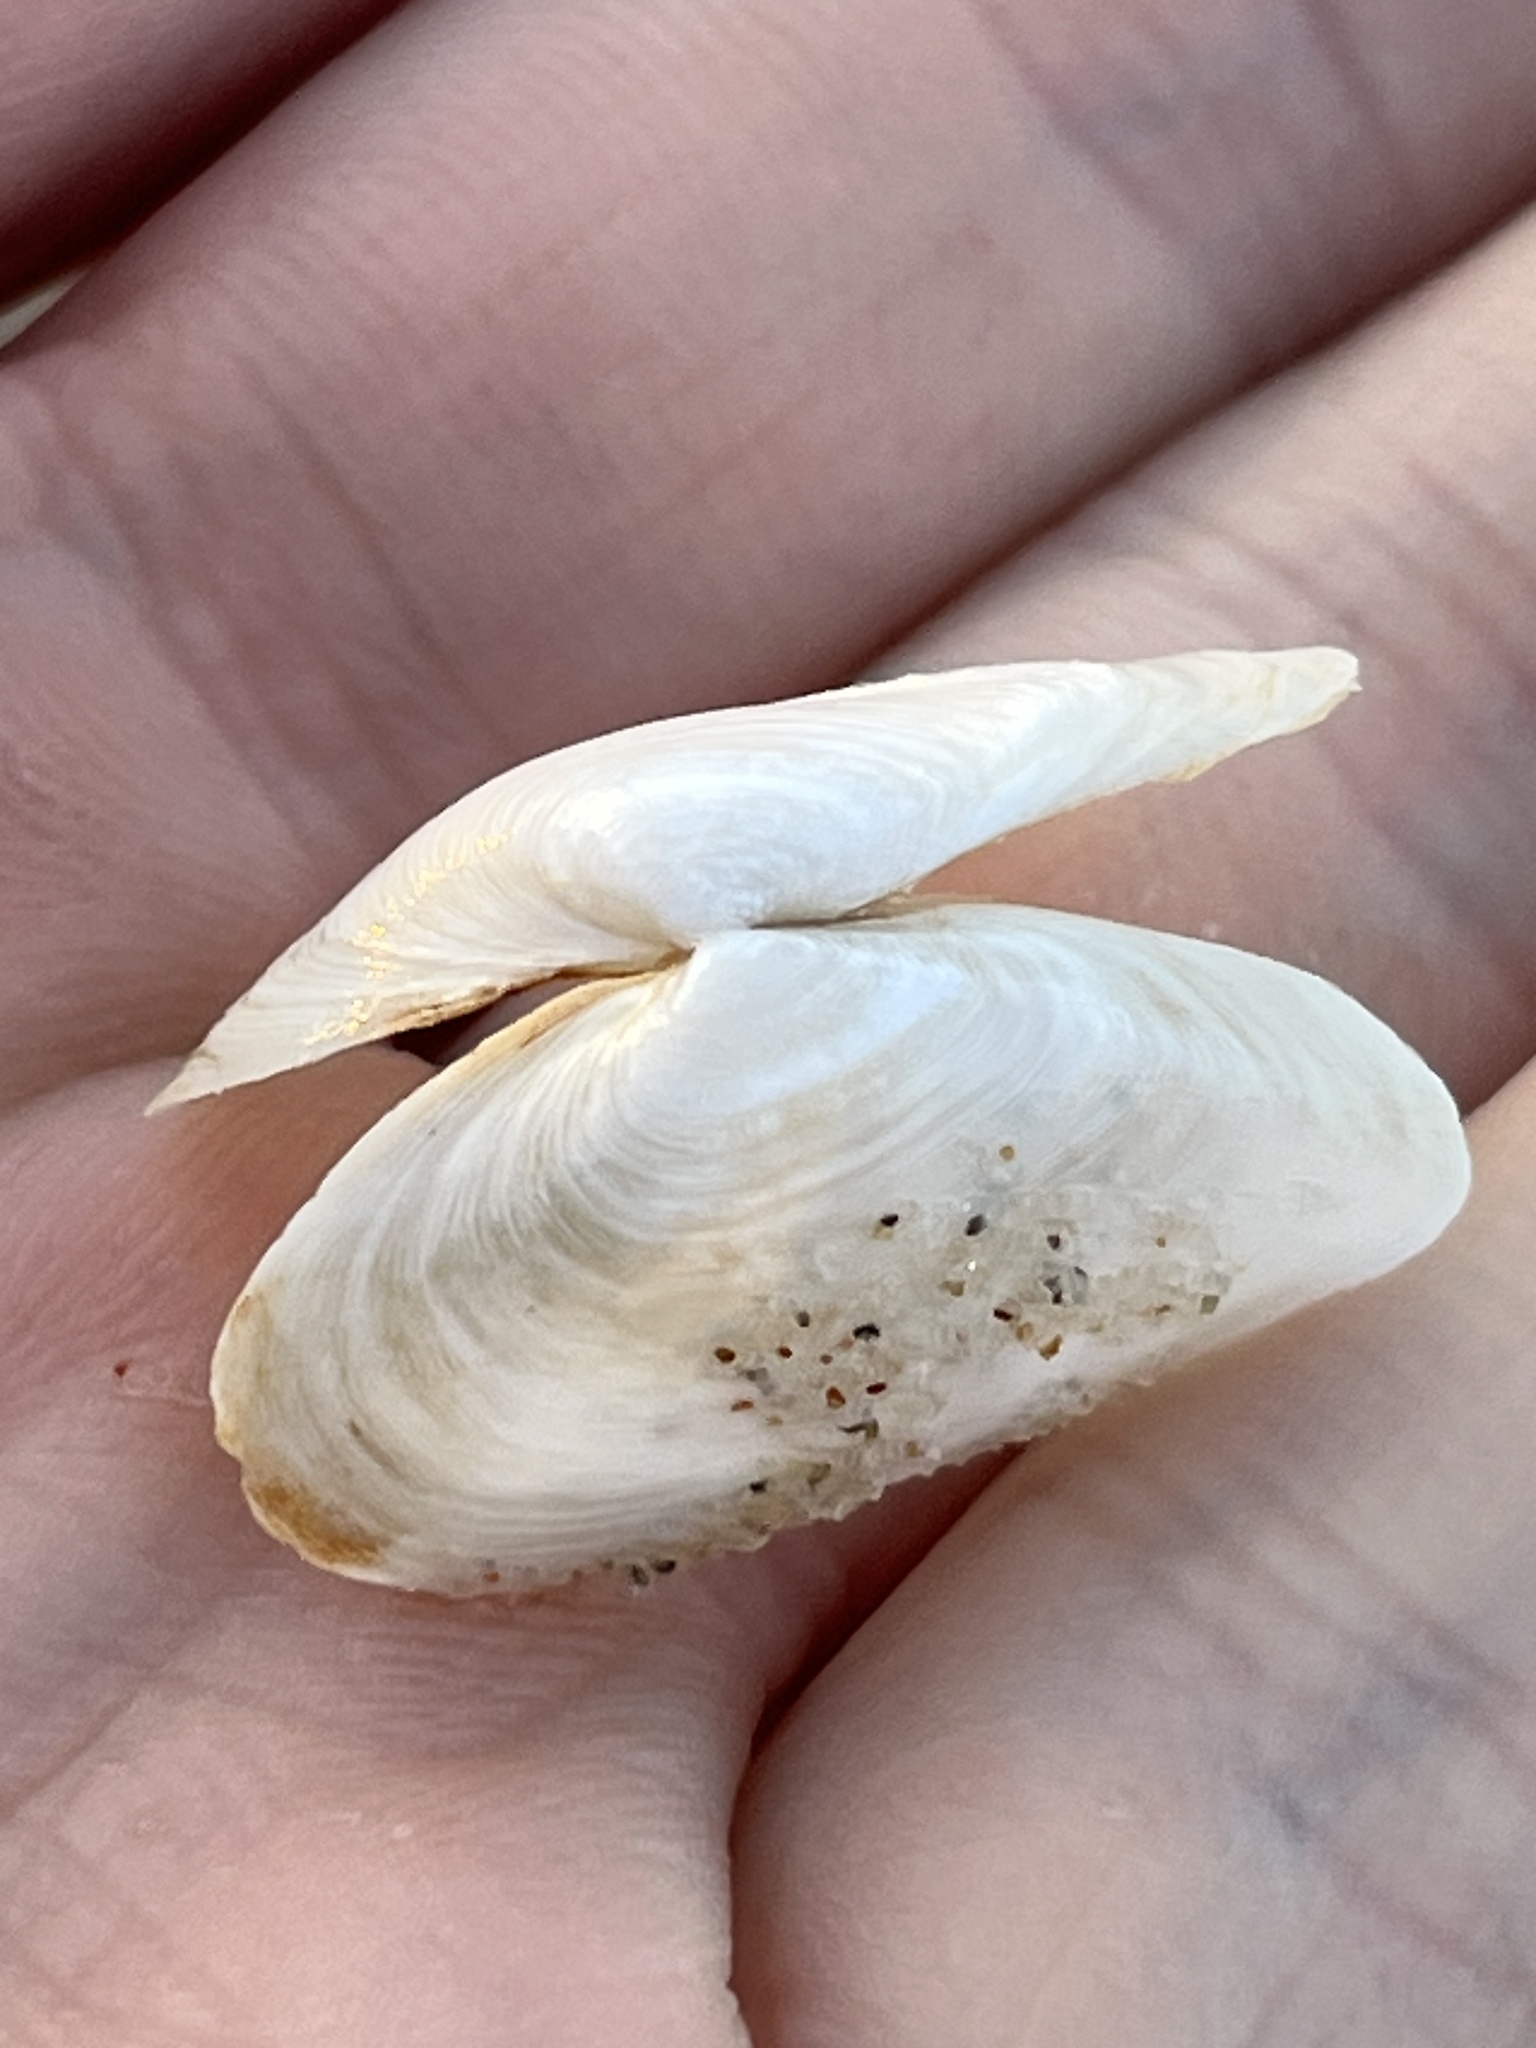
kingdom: Animalia
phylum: Mollusca
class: Bivalvia
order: Myida
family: Myidae
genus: Mya
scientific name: Mya arenaria
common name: Soft-shelled clam
